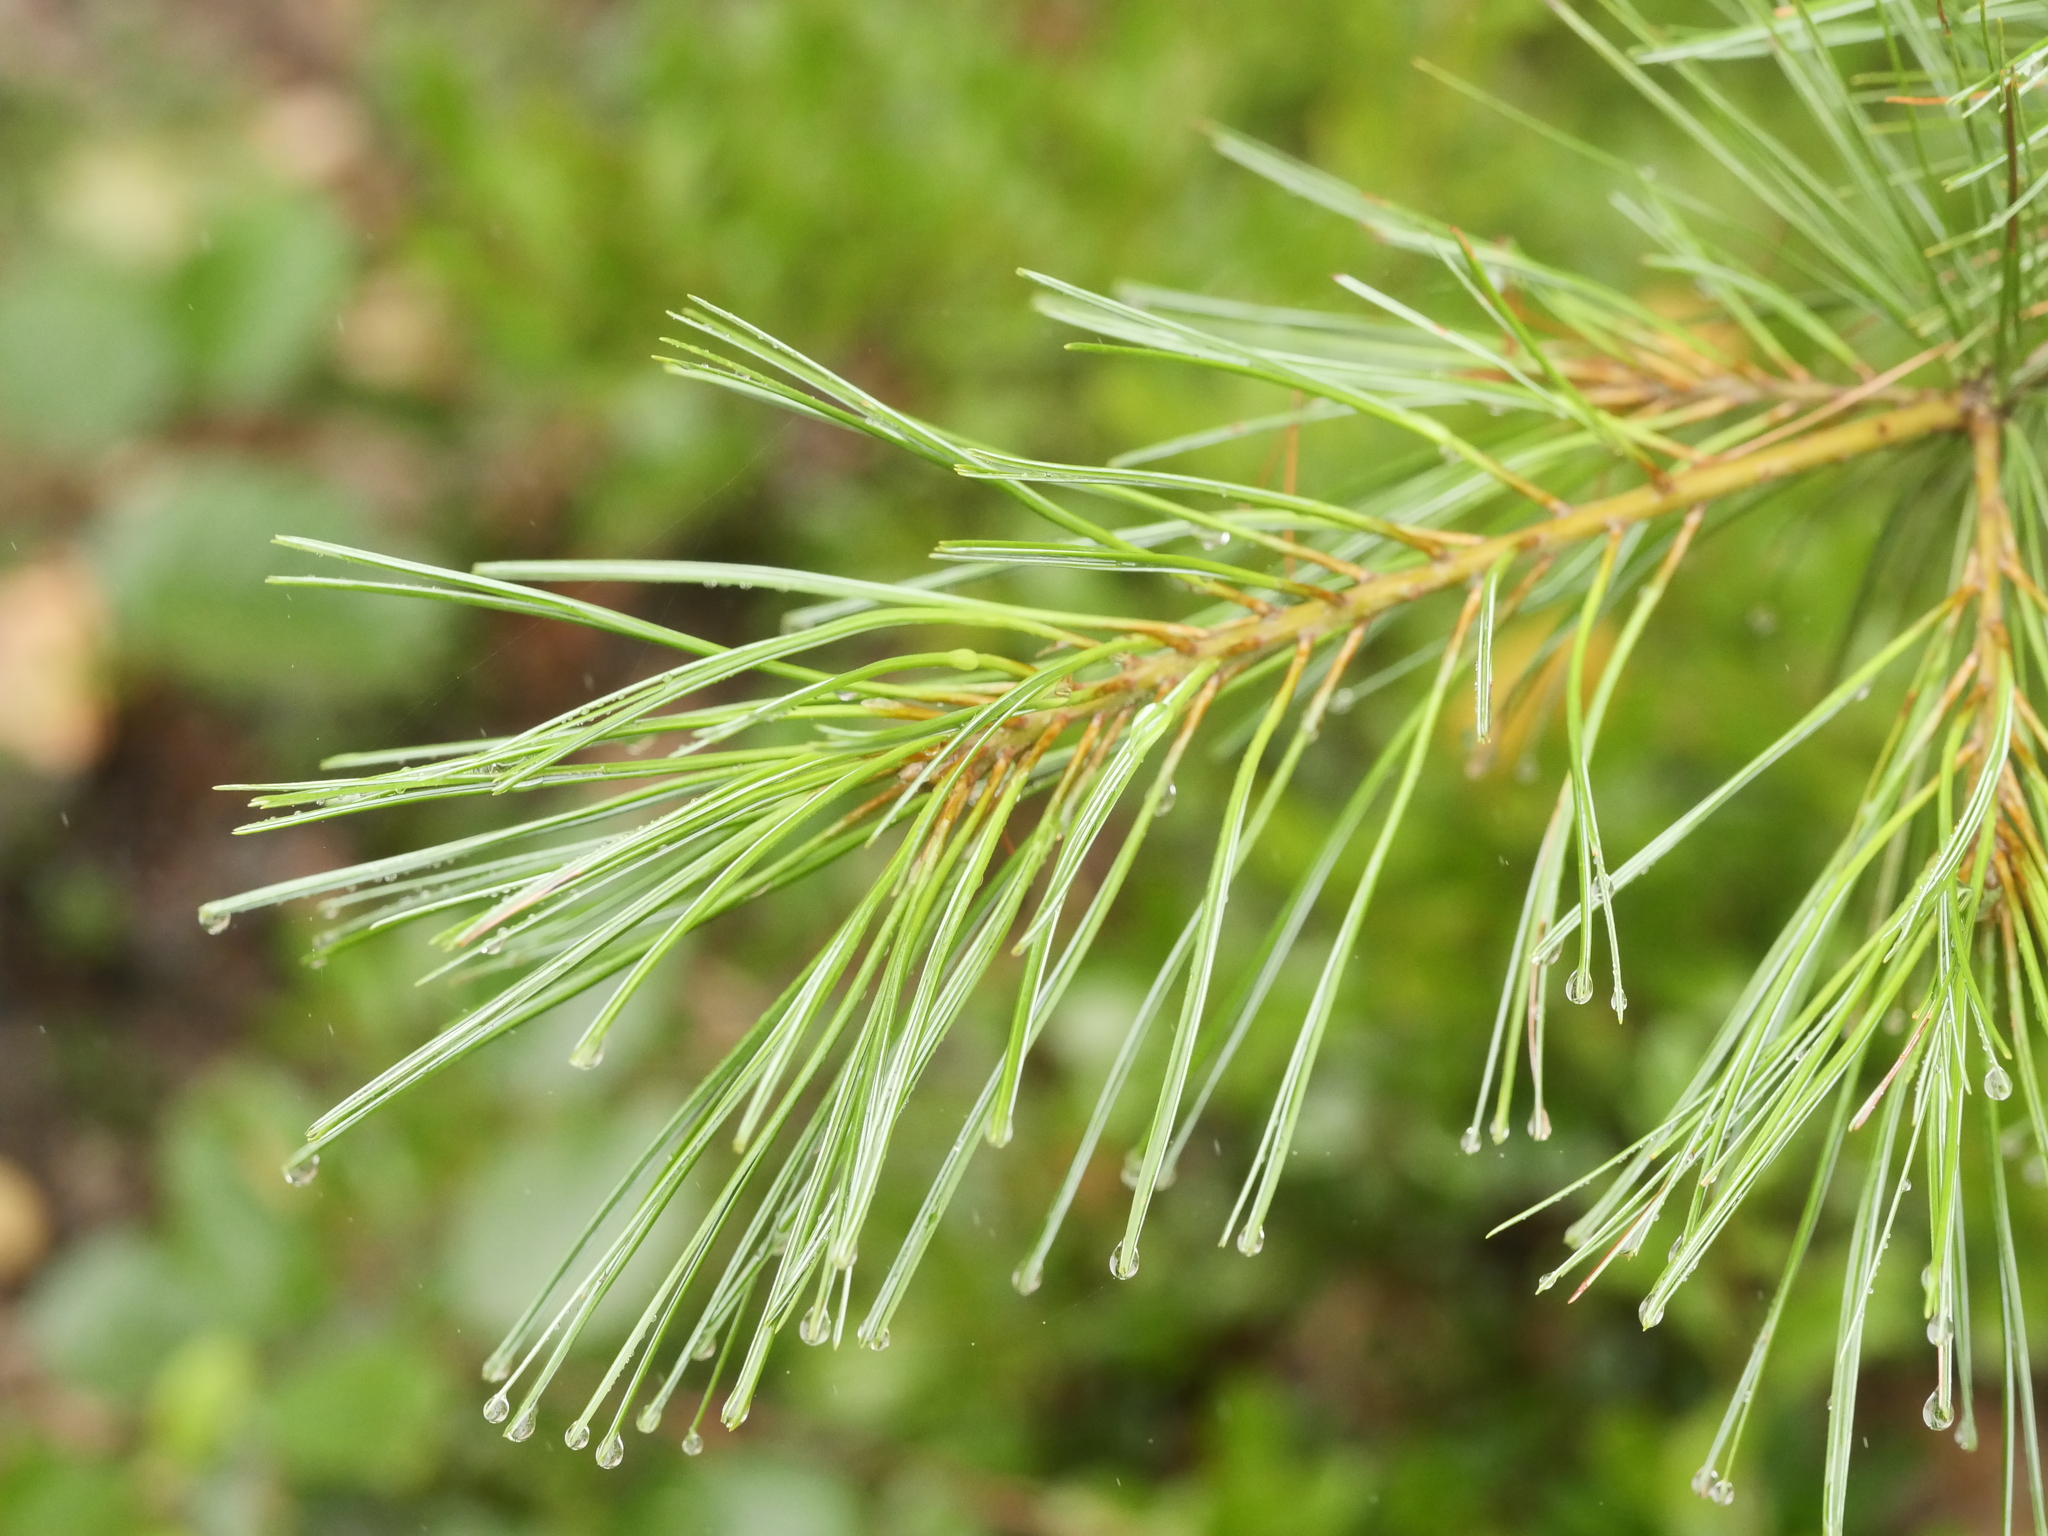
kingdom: Plantae
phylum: Tracheophyta
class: Pinopsida
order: Pinales
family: Pinaceae
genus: Pinus
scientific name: Pinus strobus
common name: Weymouth pine
